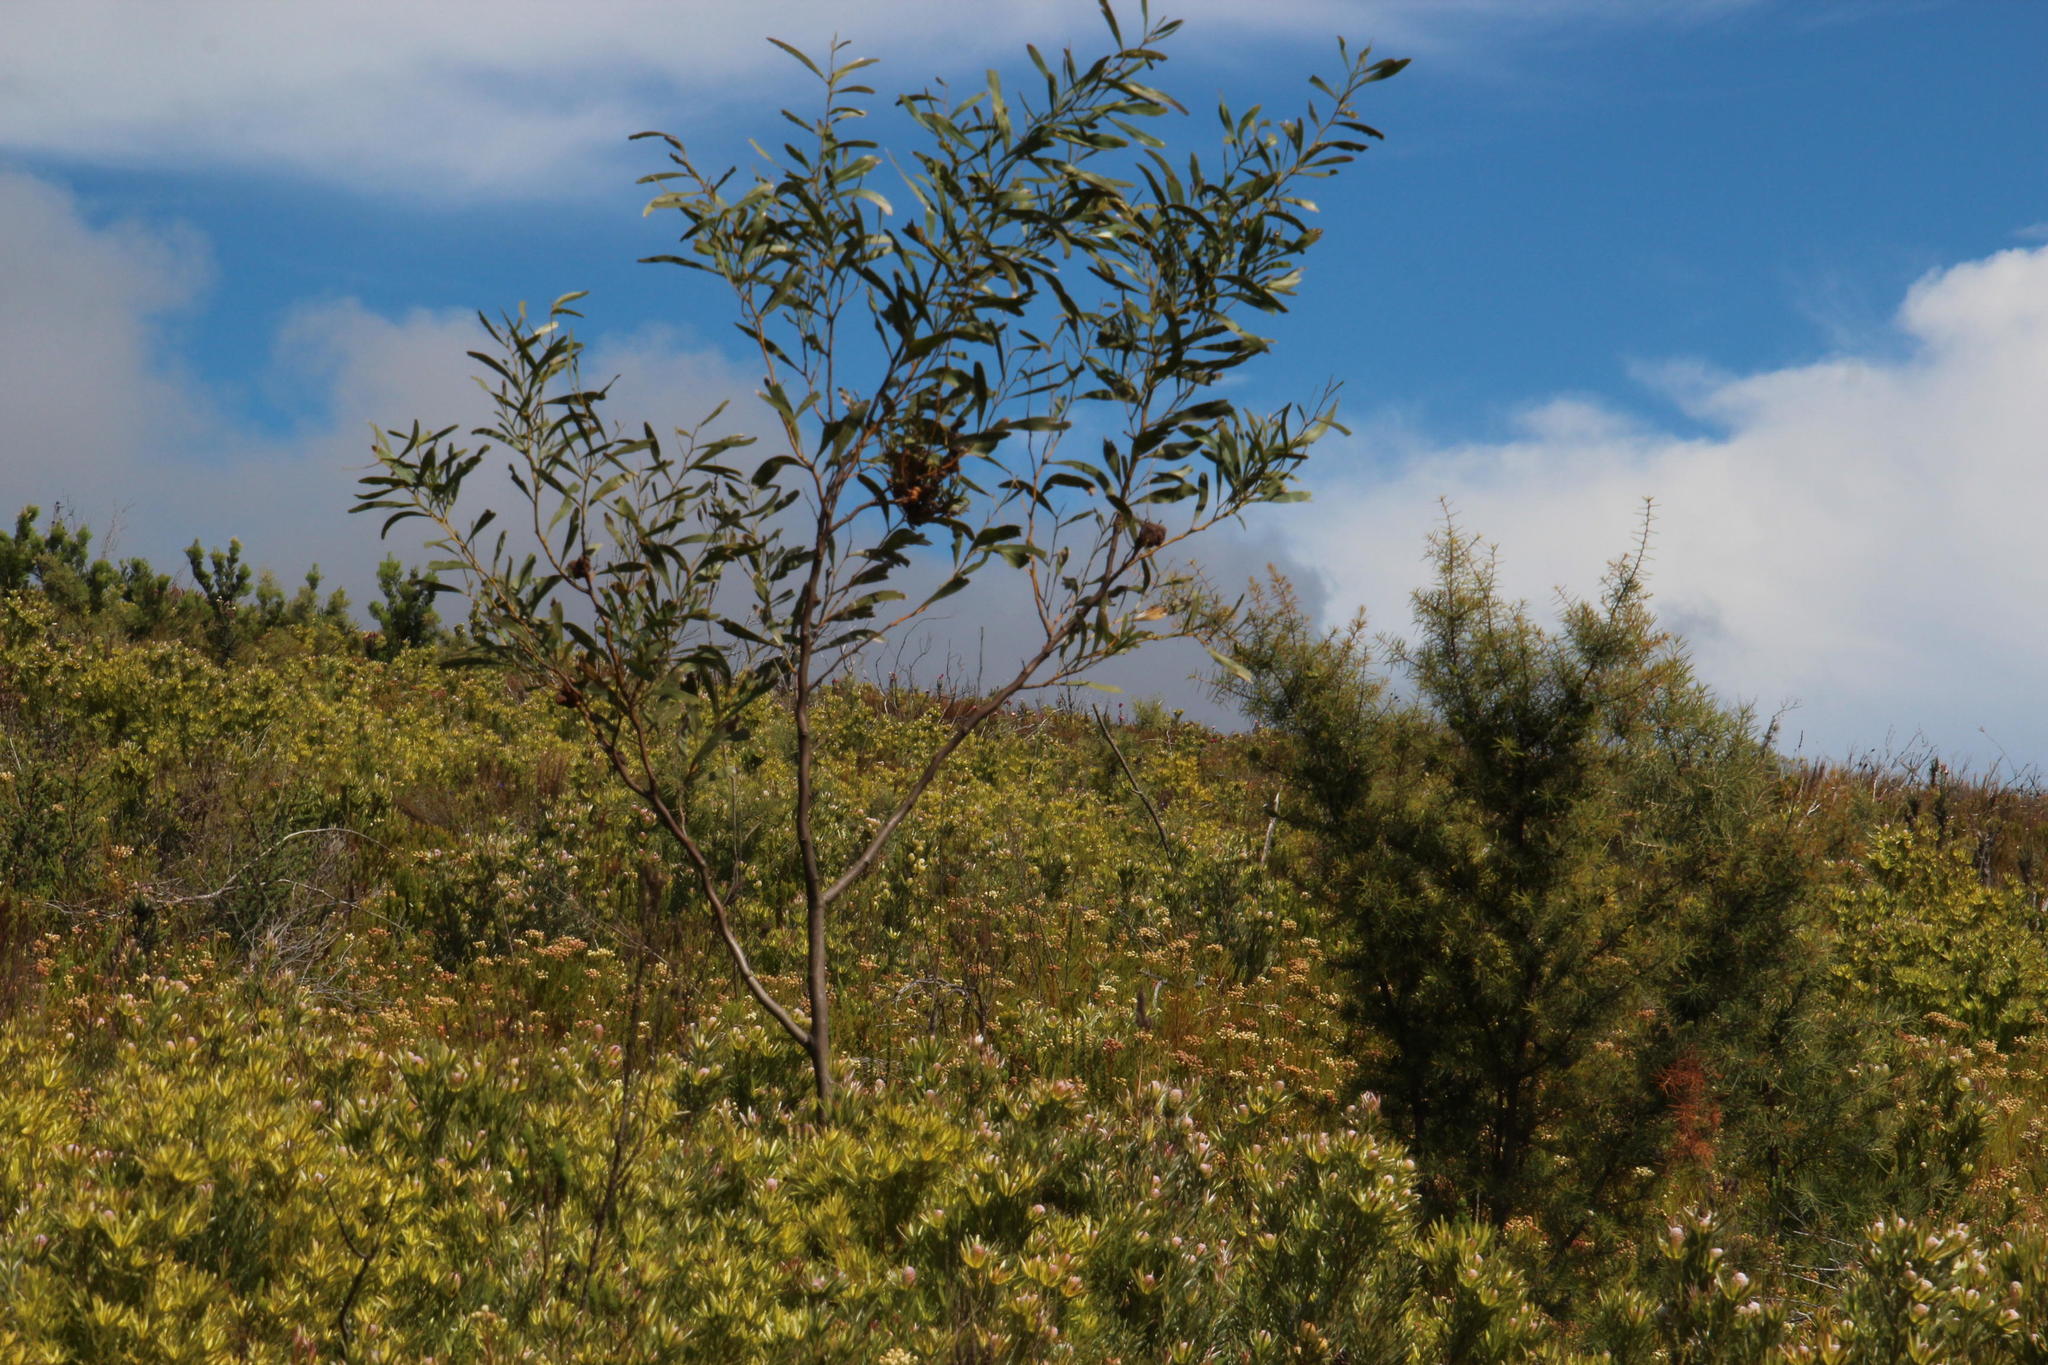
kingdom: Plantae
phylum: Tracheophyta
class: Magnoliopsida
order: Fabales
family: Fabaceae
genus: Acacia
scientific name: Acacia saligna
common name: Orange wattle
